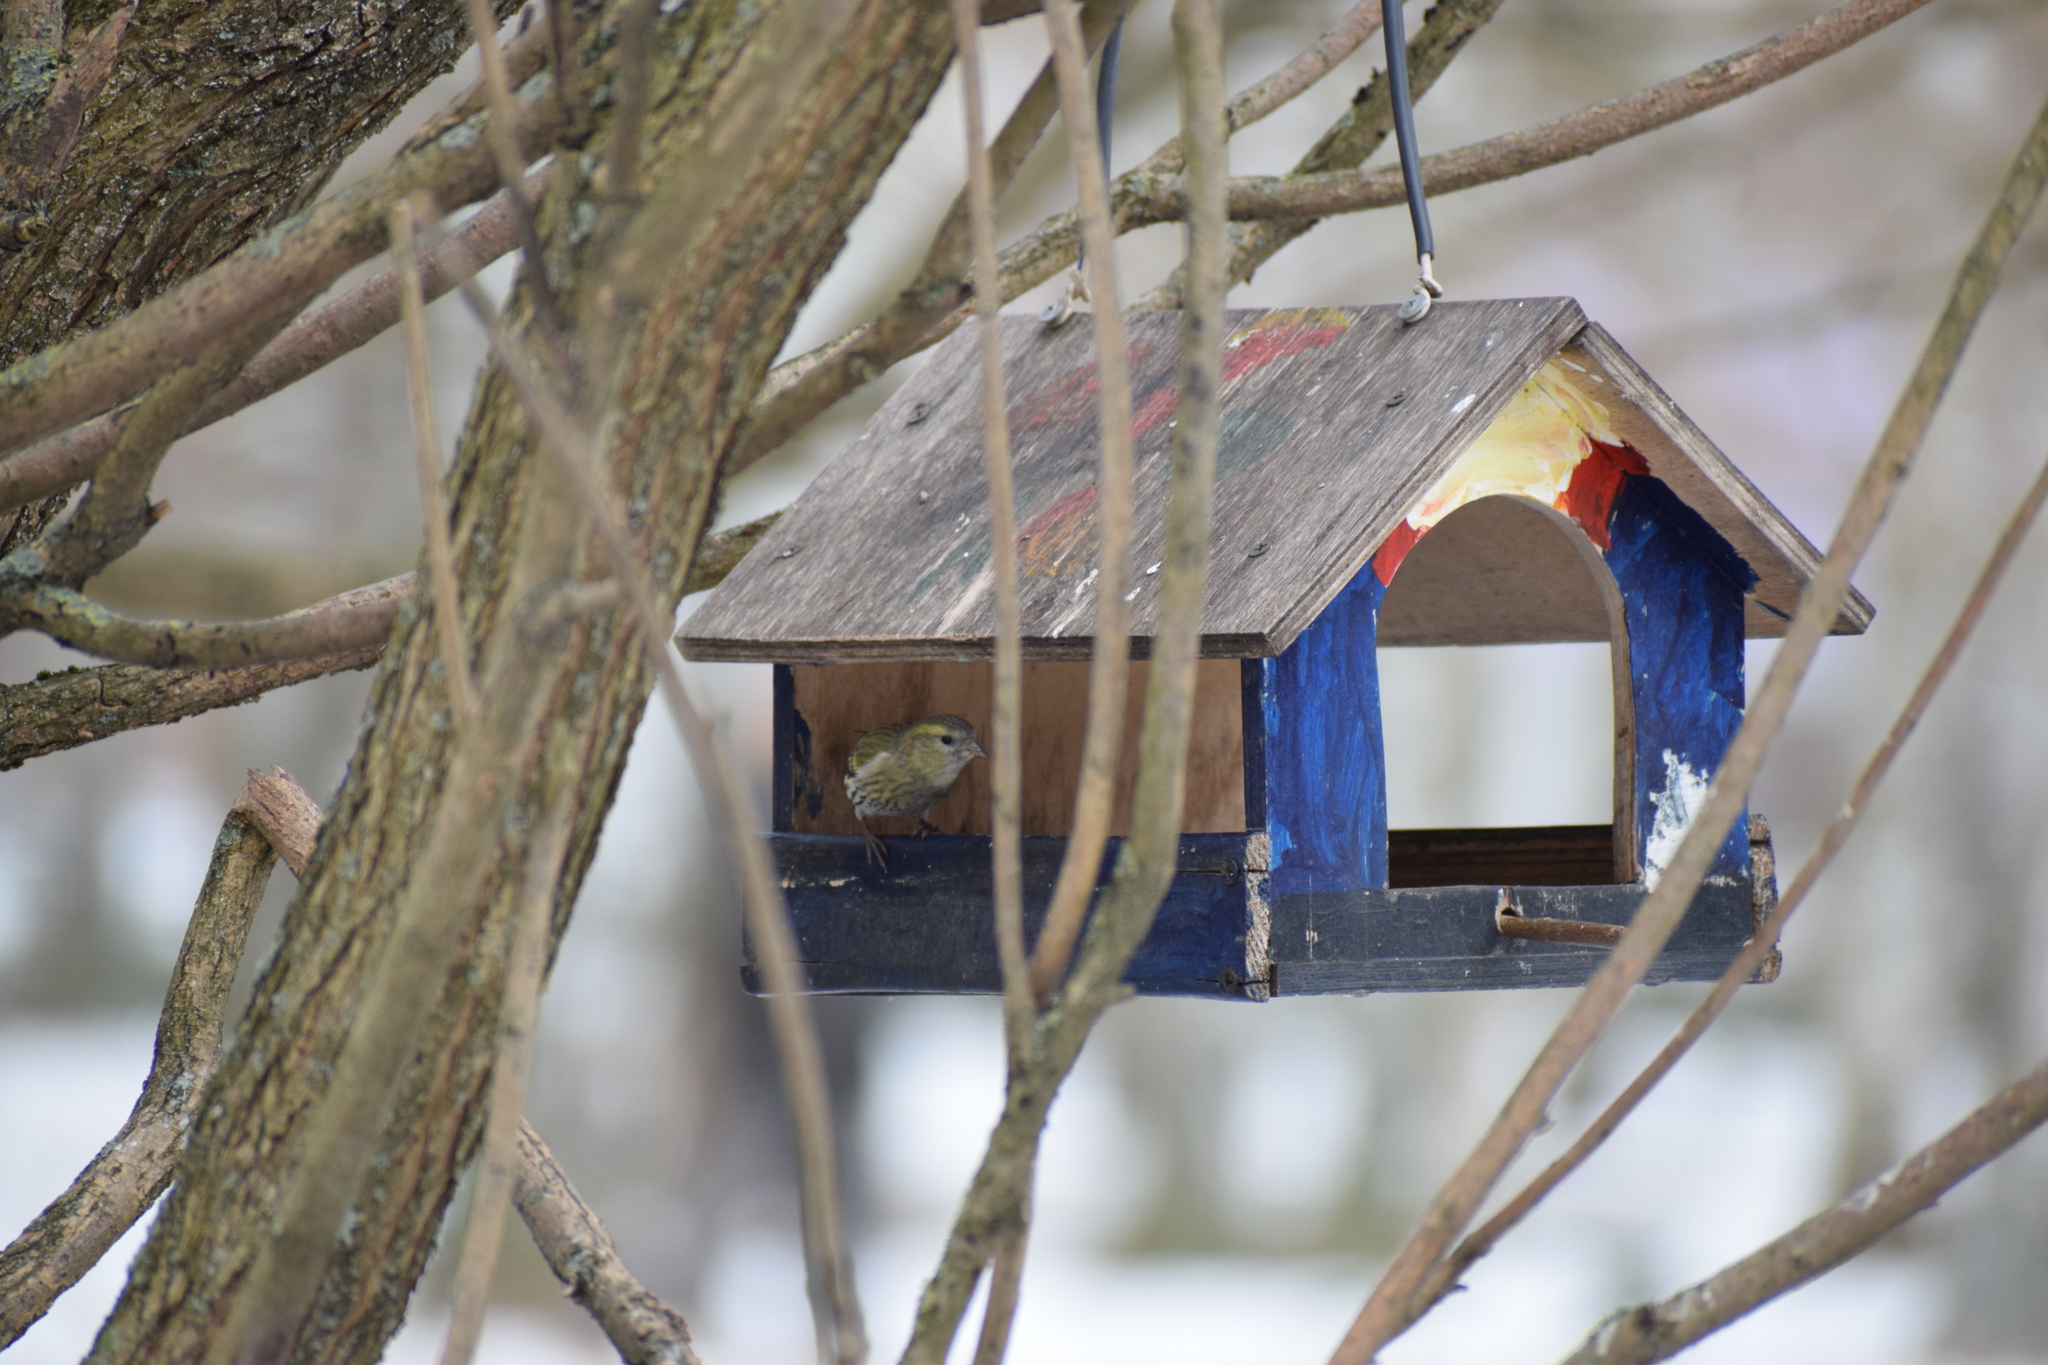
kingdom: Animalia
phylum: Chordata
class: Aves
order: Passeriformes
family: Fringillidae
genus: Spinus
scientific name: Spinus spinus
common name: Eurasian siskin
